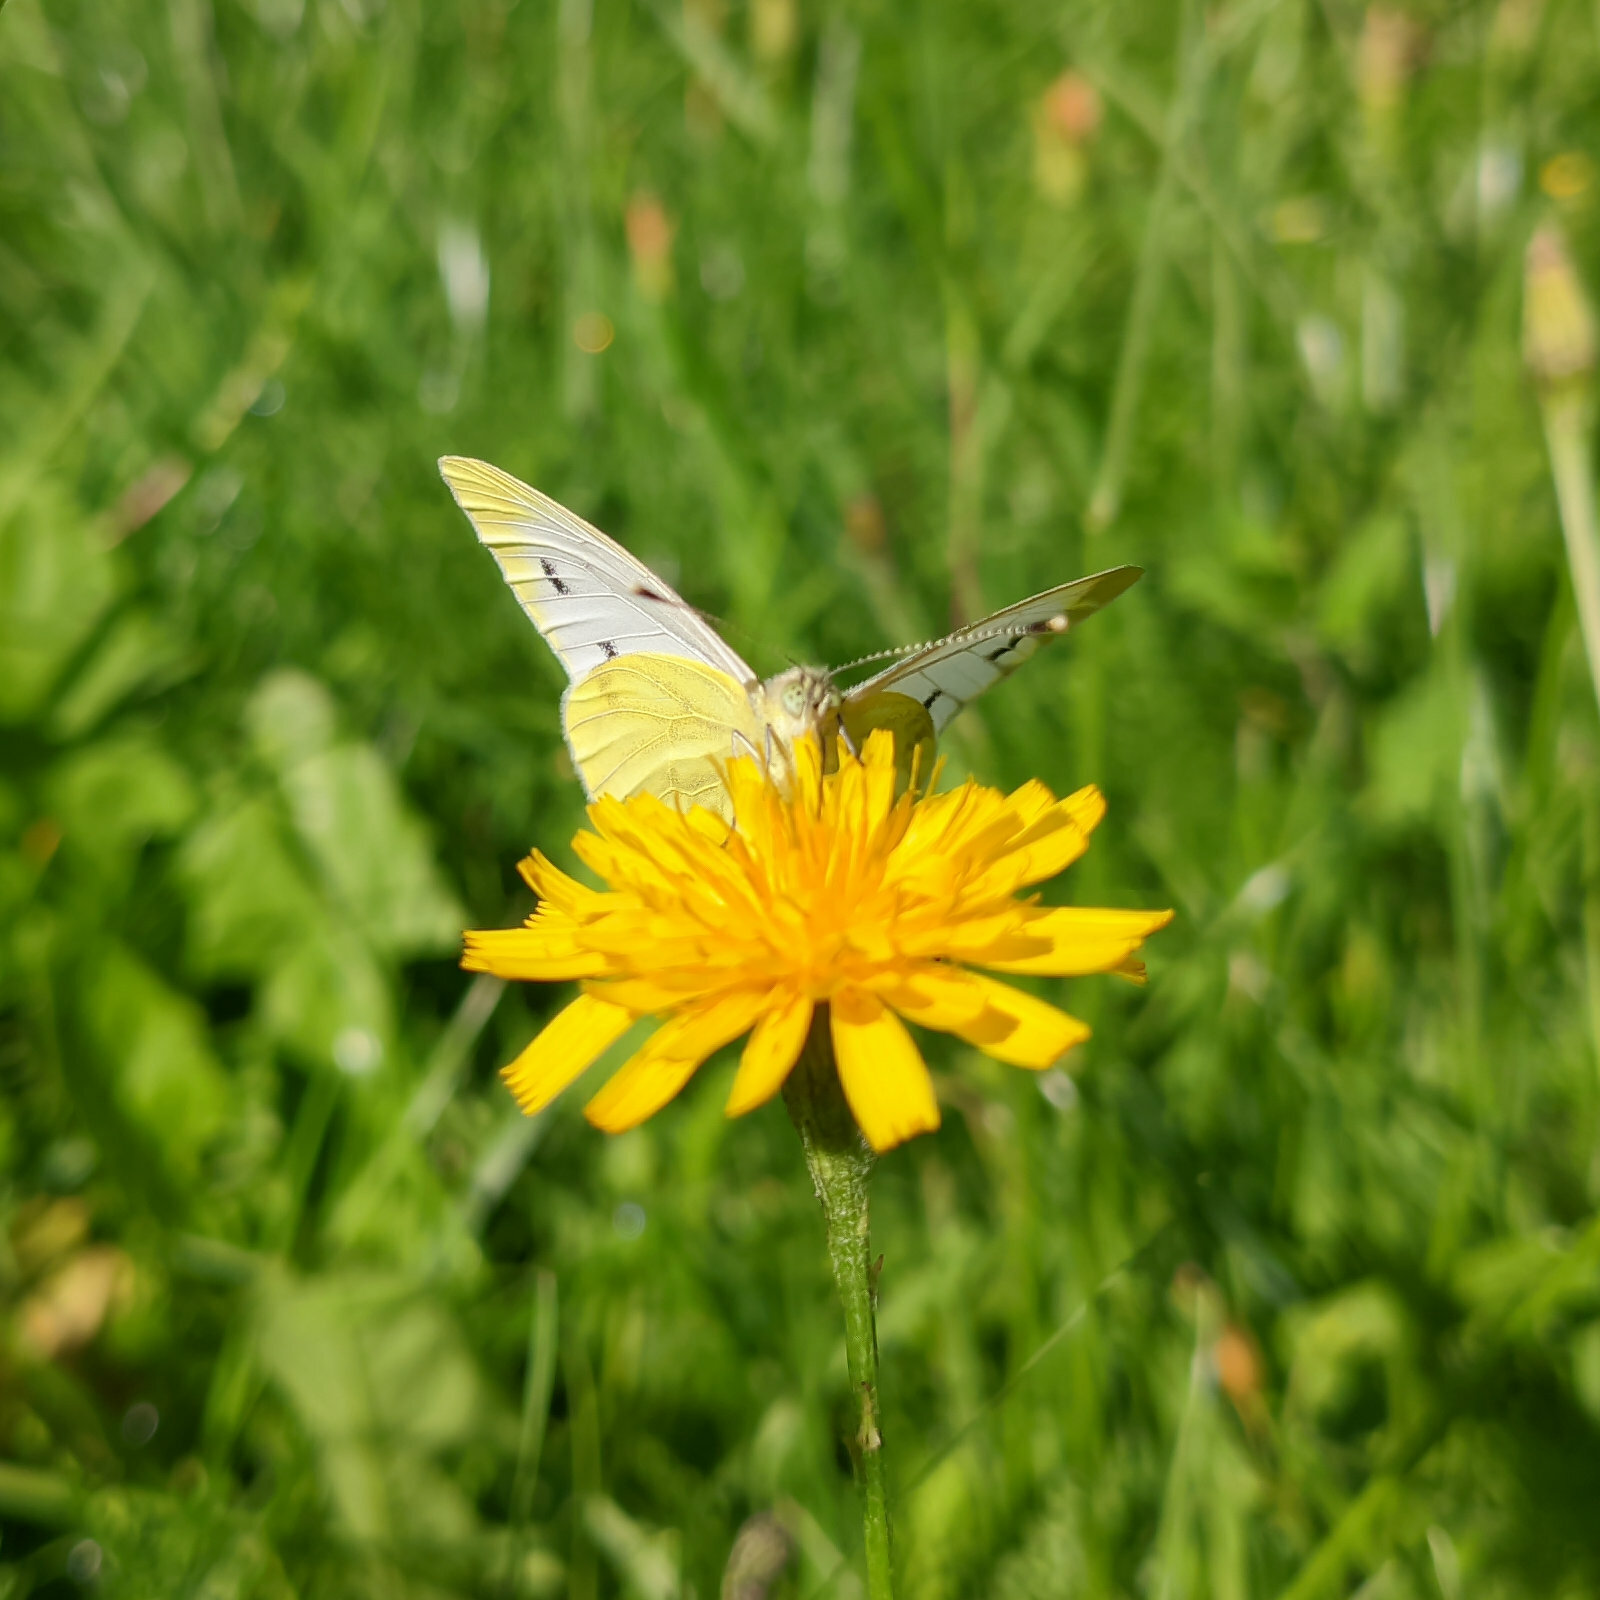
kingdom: Animalia
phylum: Arthropoda
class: Insecta
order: Lepidoptera
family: Pieridae
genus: Pieris
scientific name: Pieris napi
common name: Green-veined white
